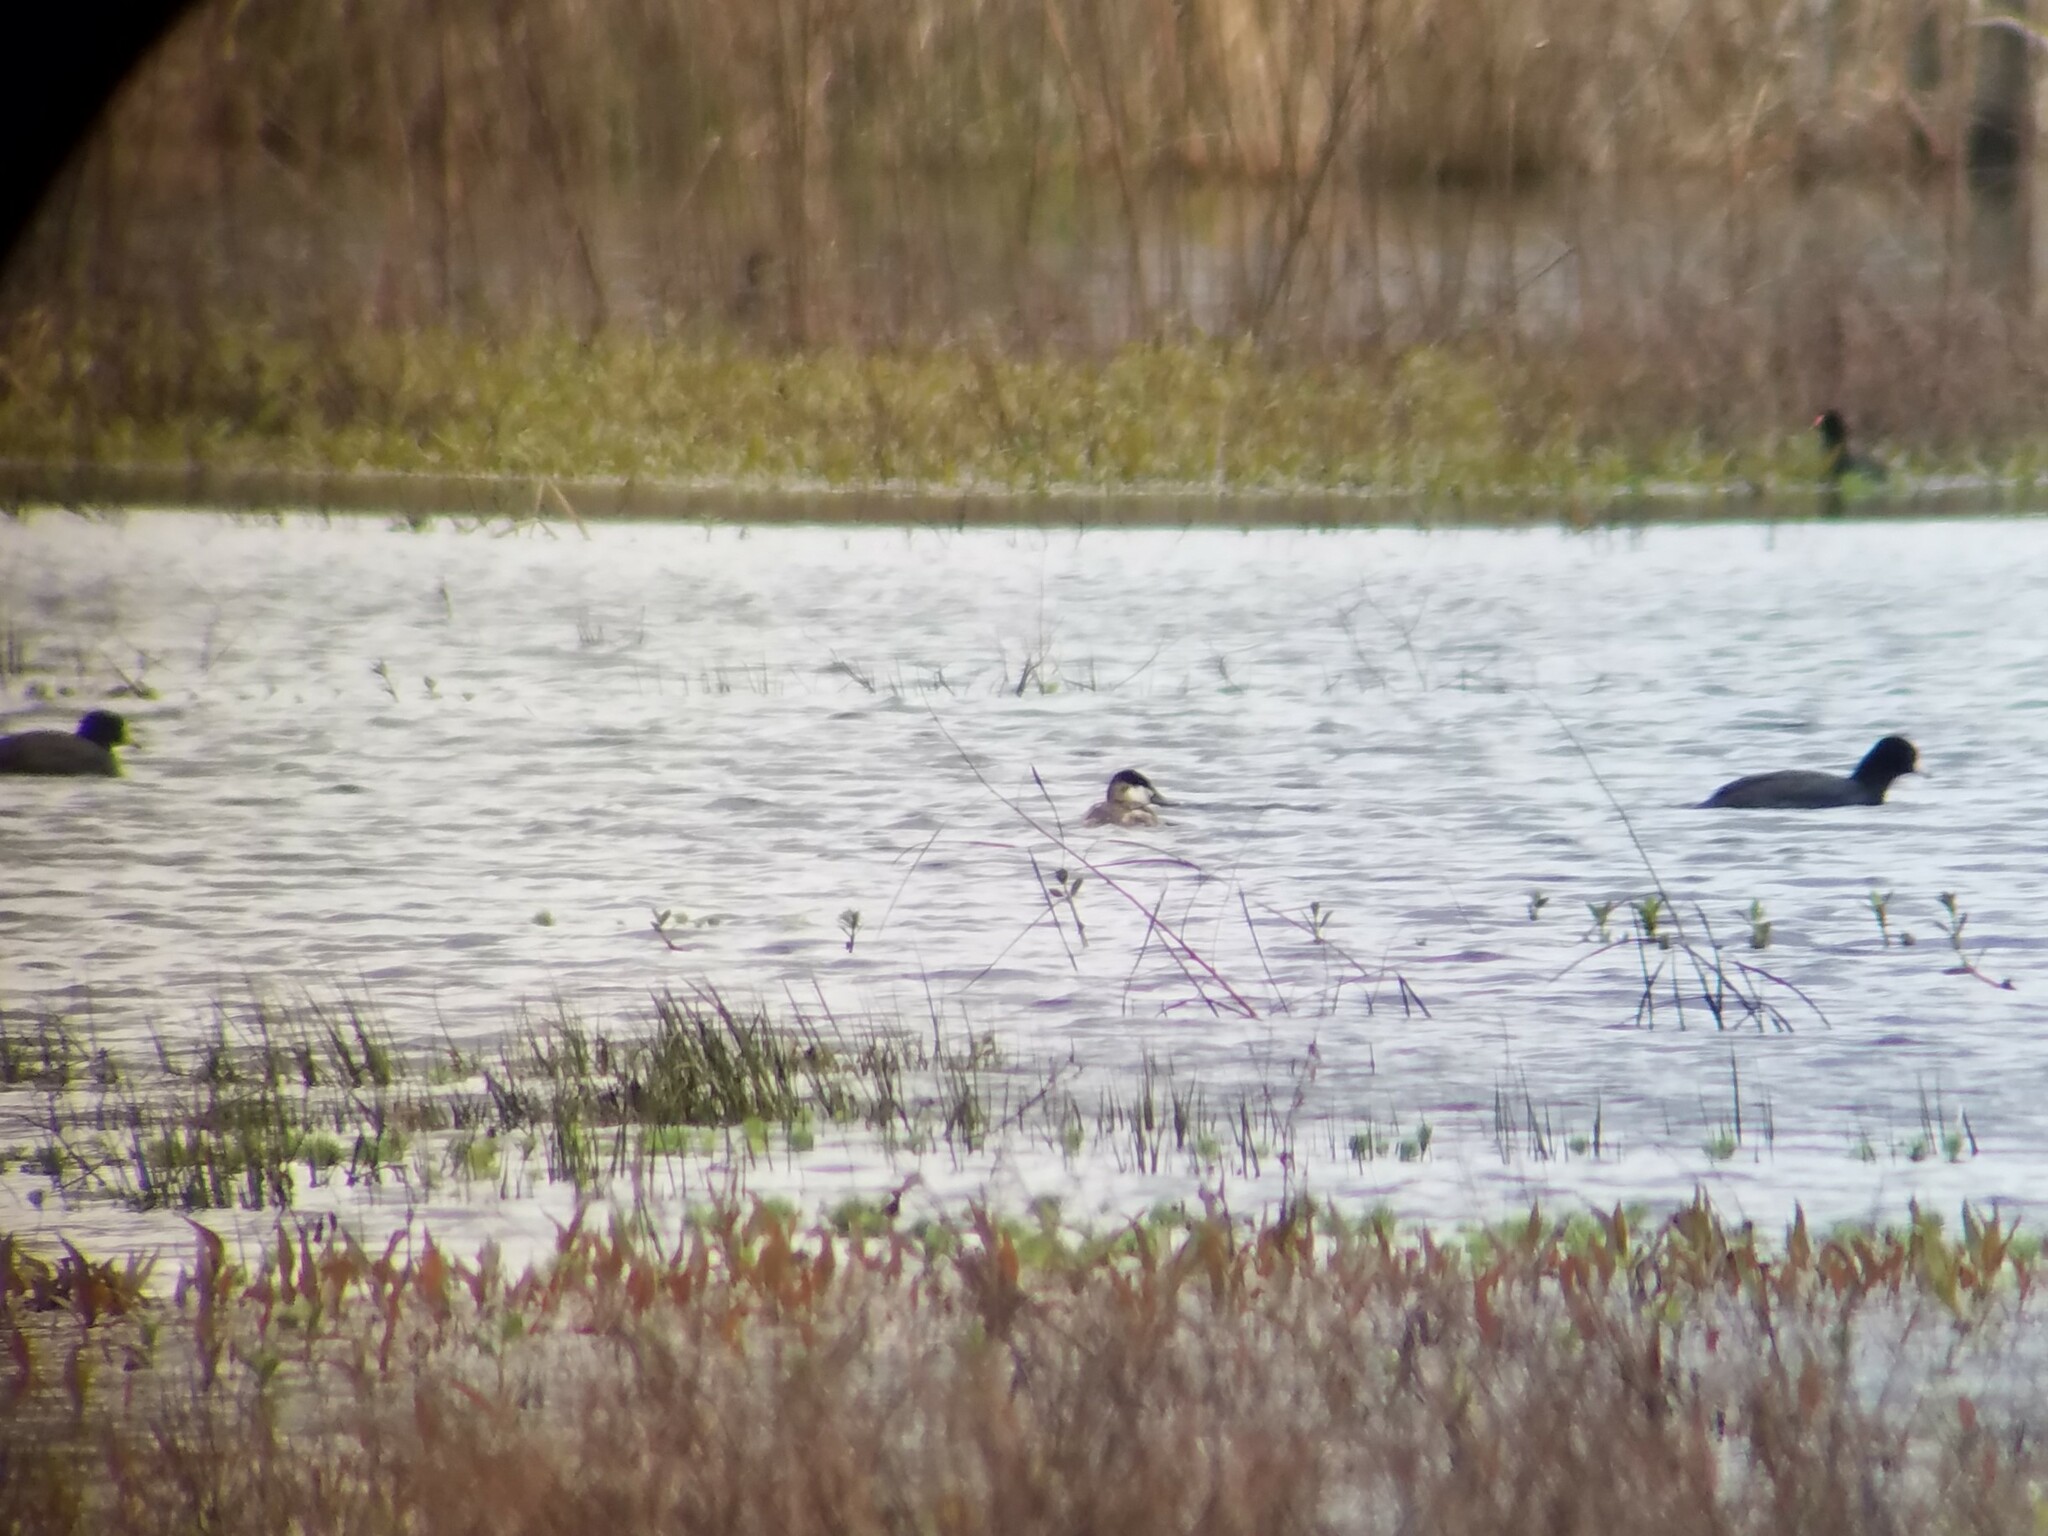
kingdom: Animalia
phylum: Chordata
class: Aves
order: Gruiformes
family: Rallidae
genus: Fulica
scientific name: Fulica americana
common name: American coot
